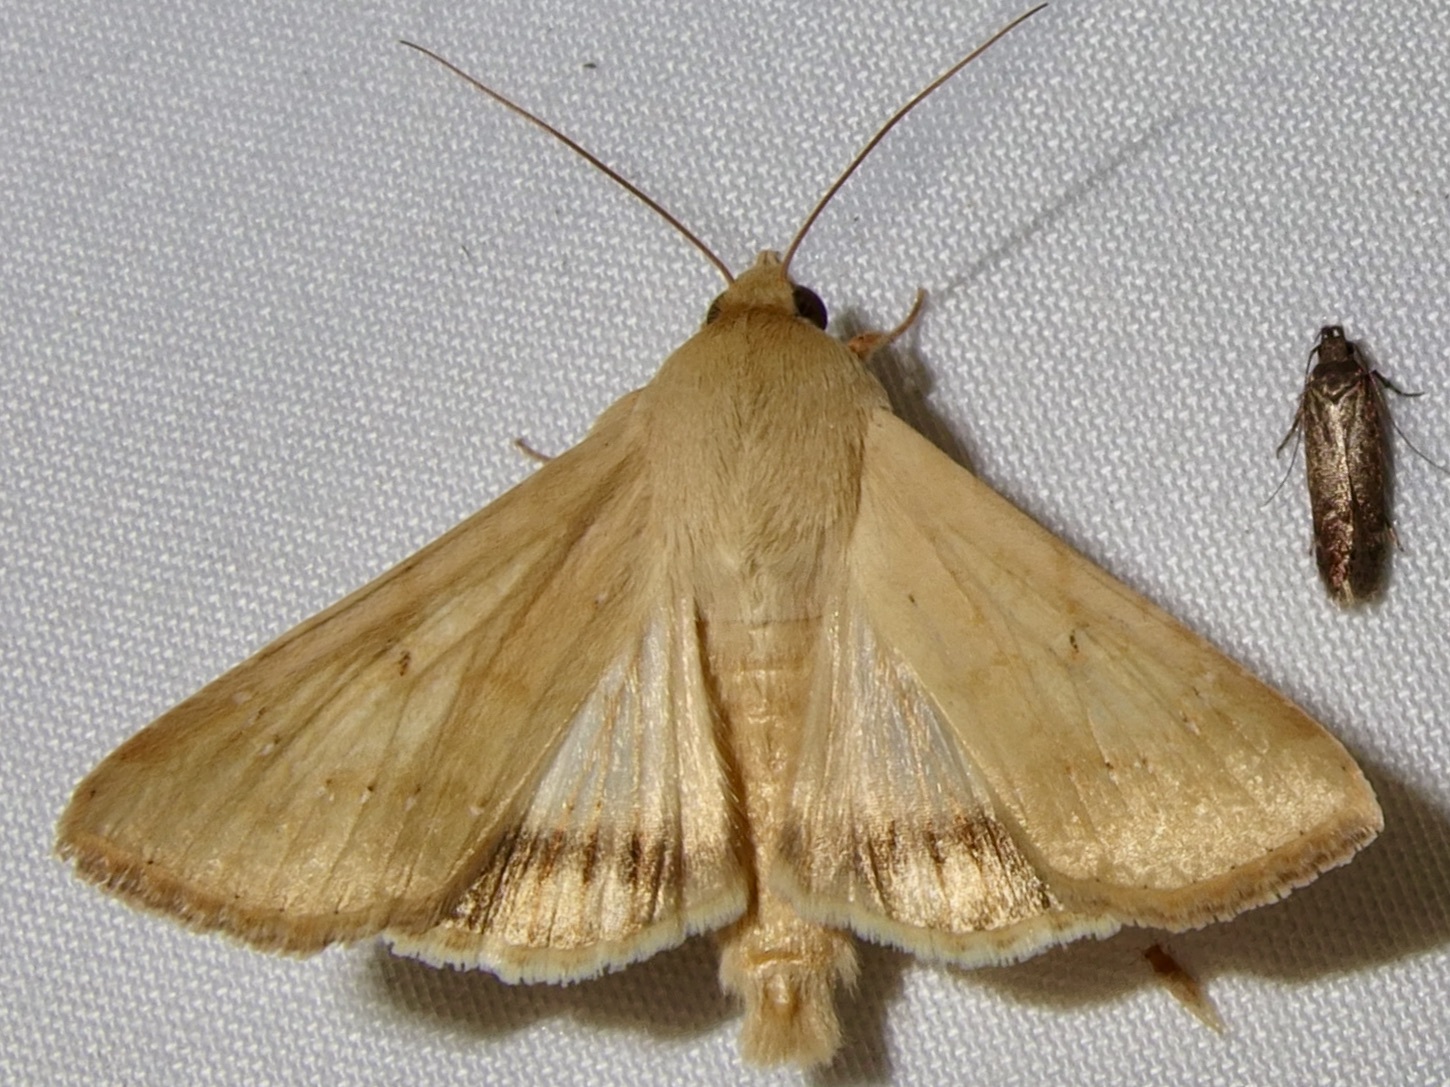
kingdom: Animalia
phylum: Arthropoda
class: Insecta
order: Lepidoptera
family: Noctuidae
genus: Helicoverpa
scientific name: Helicoverpa zea
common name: Bollworm
